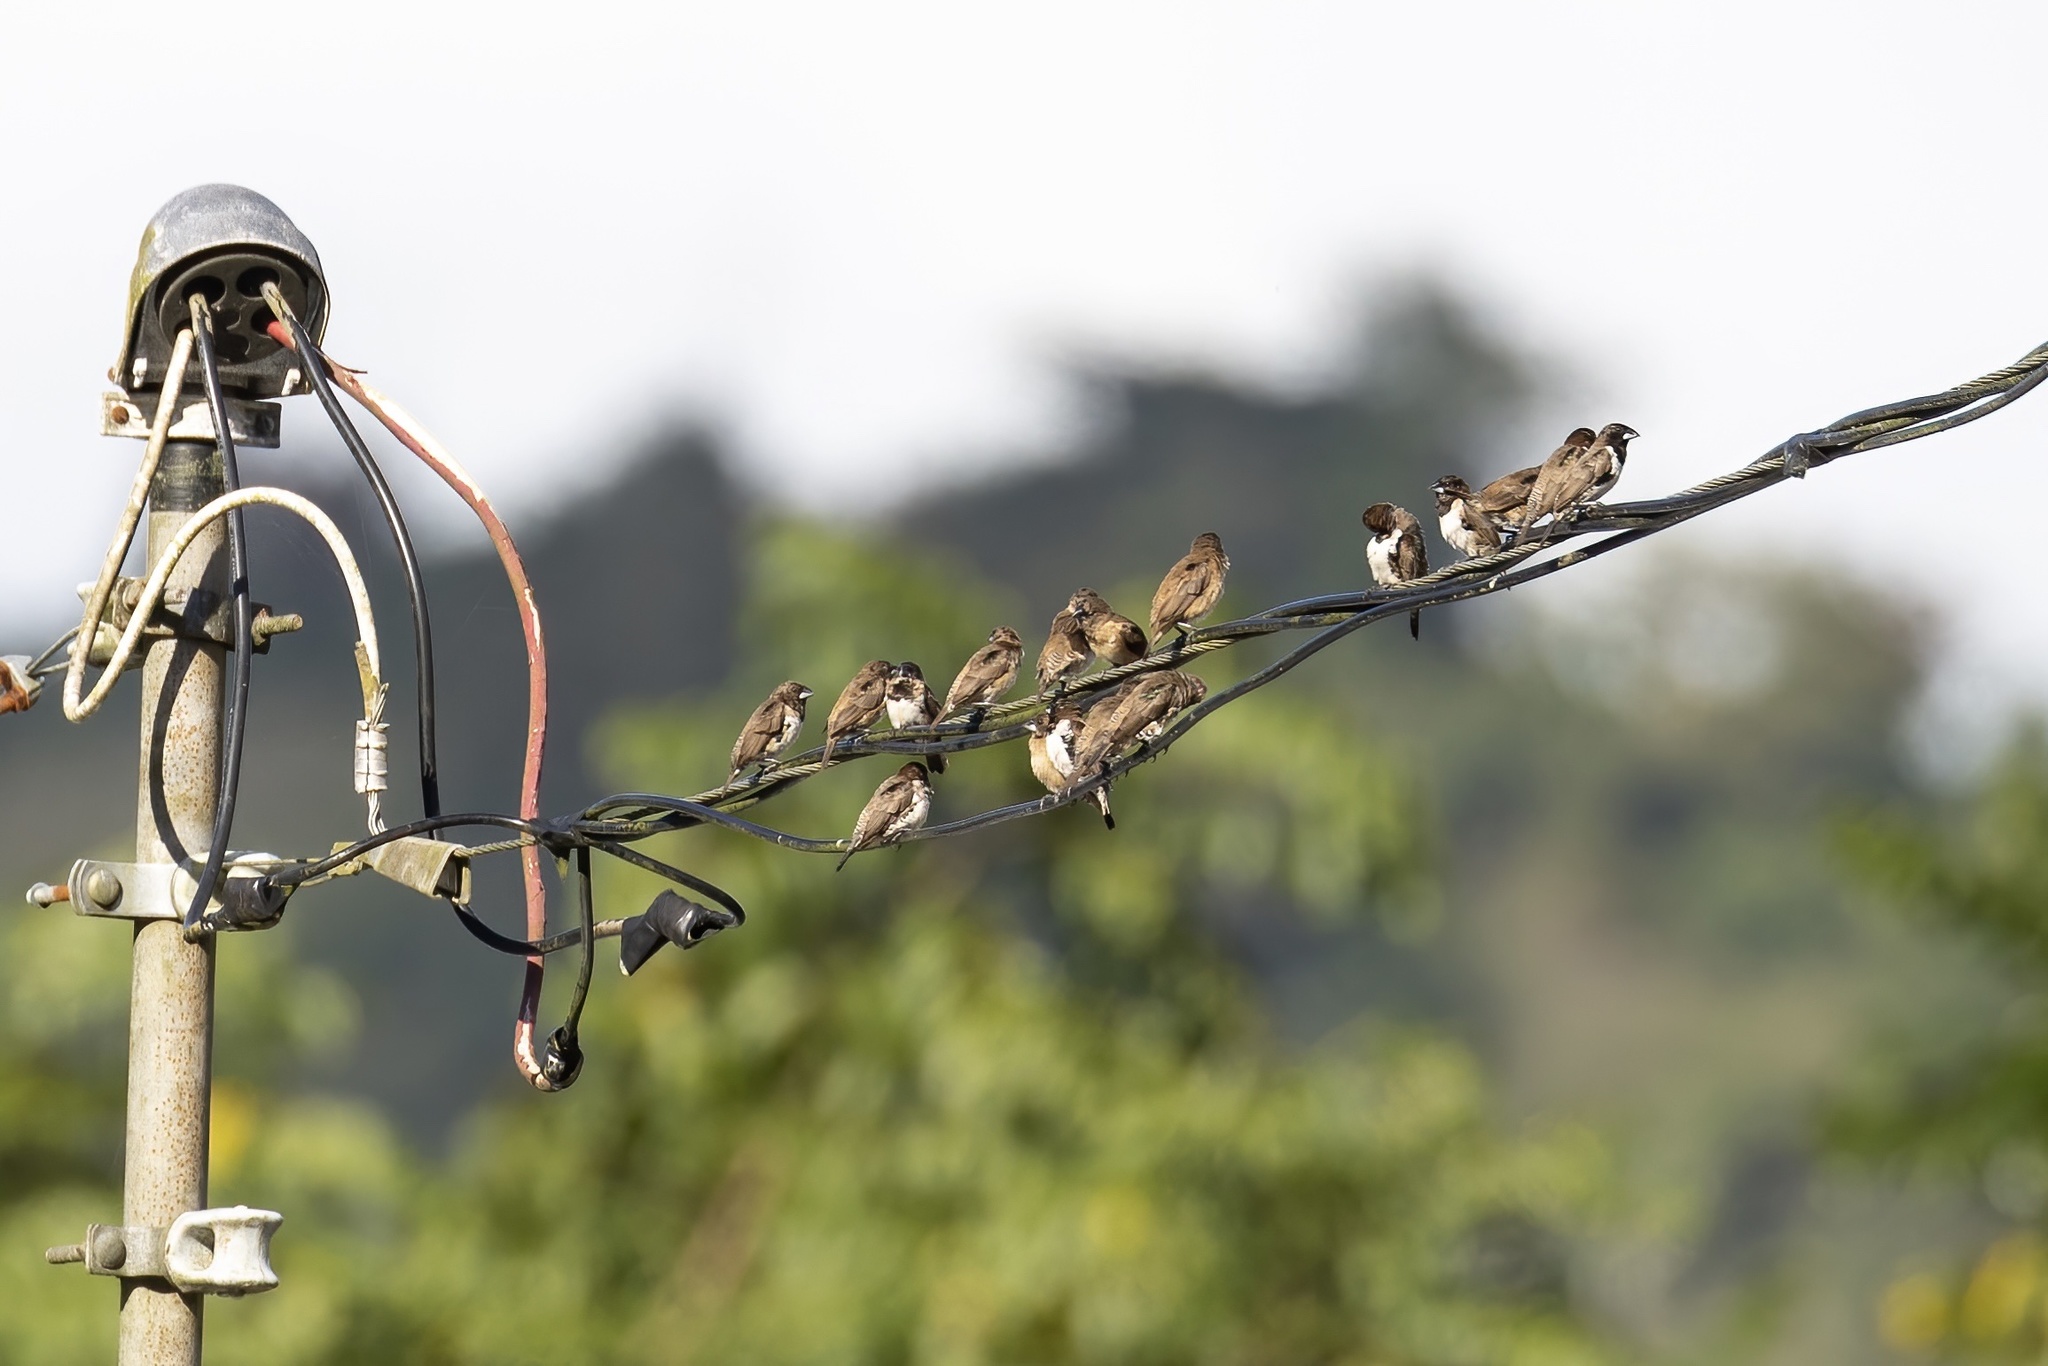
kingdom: Animalia
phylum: Chordata
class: Aves
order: Passeriformes
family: Estrildidae
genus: Lonchura
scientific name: Lonchura cucullata
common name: Bronze mannikin
